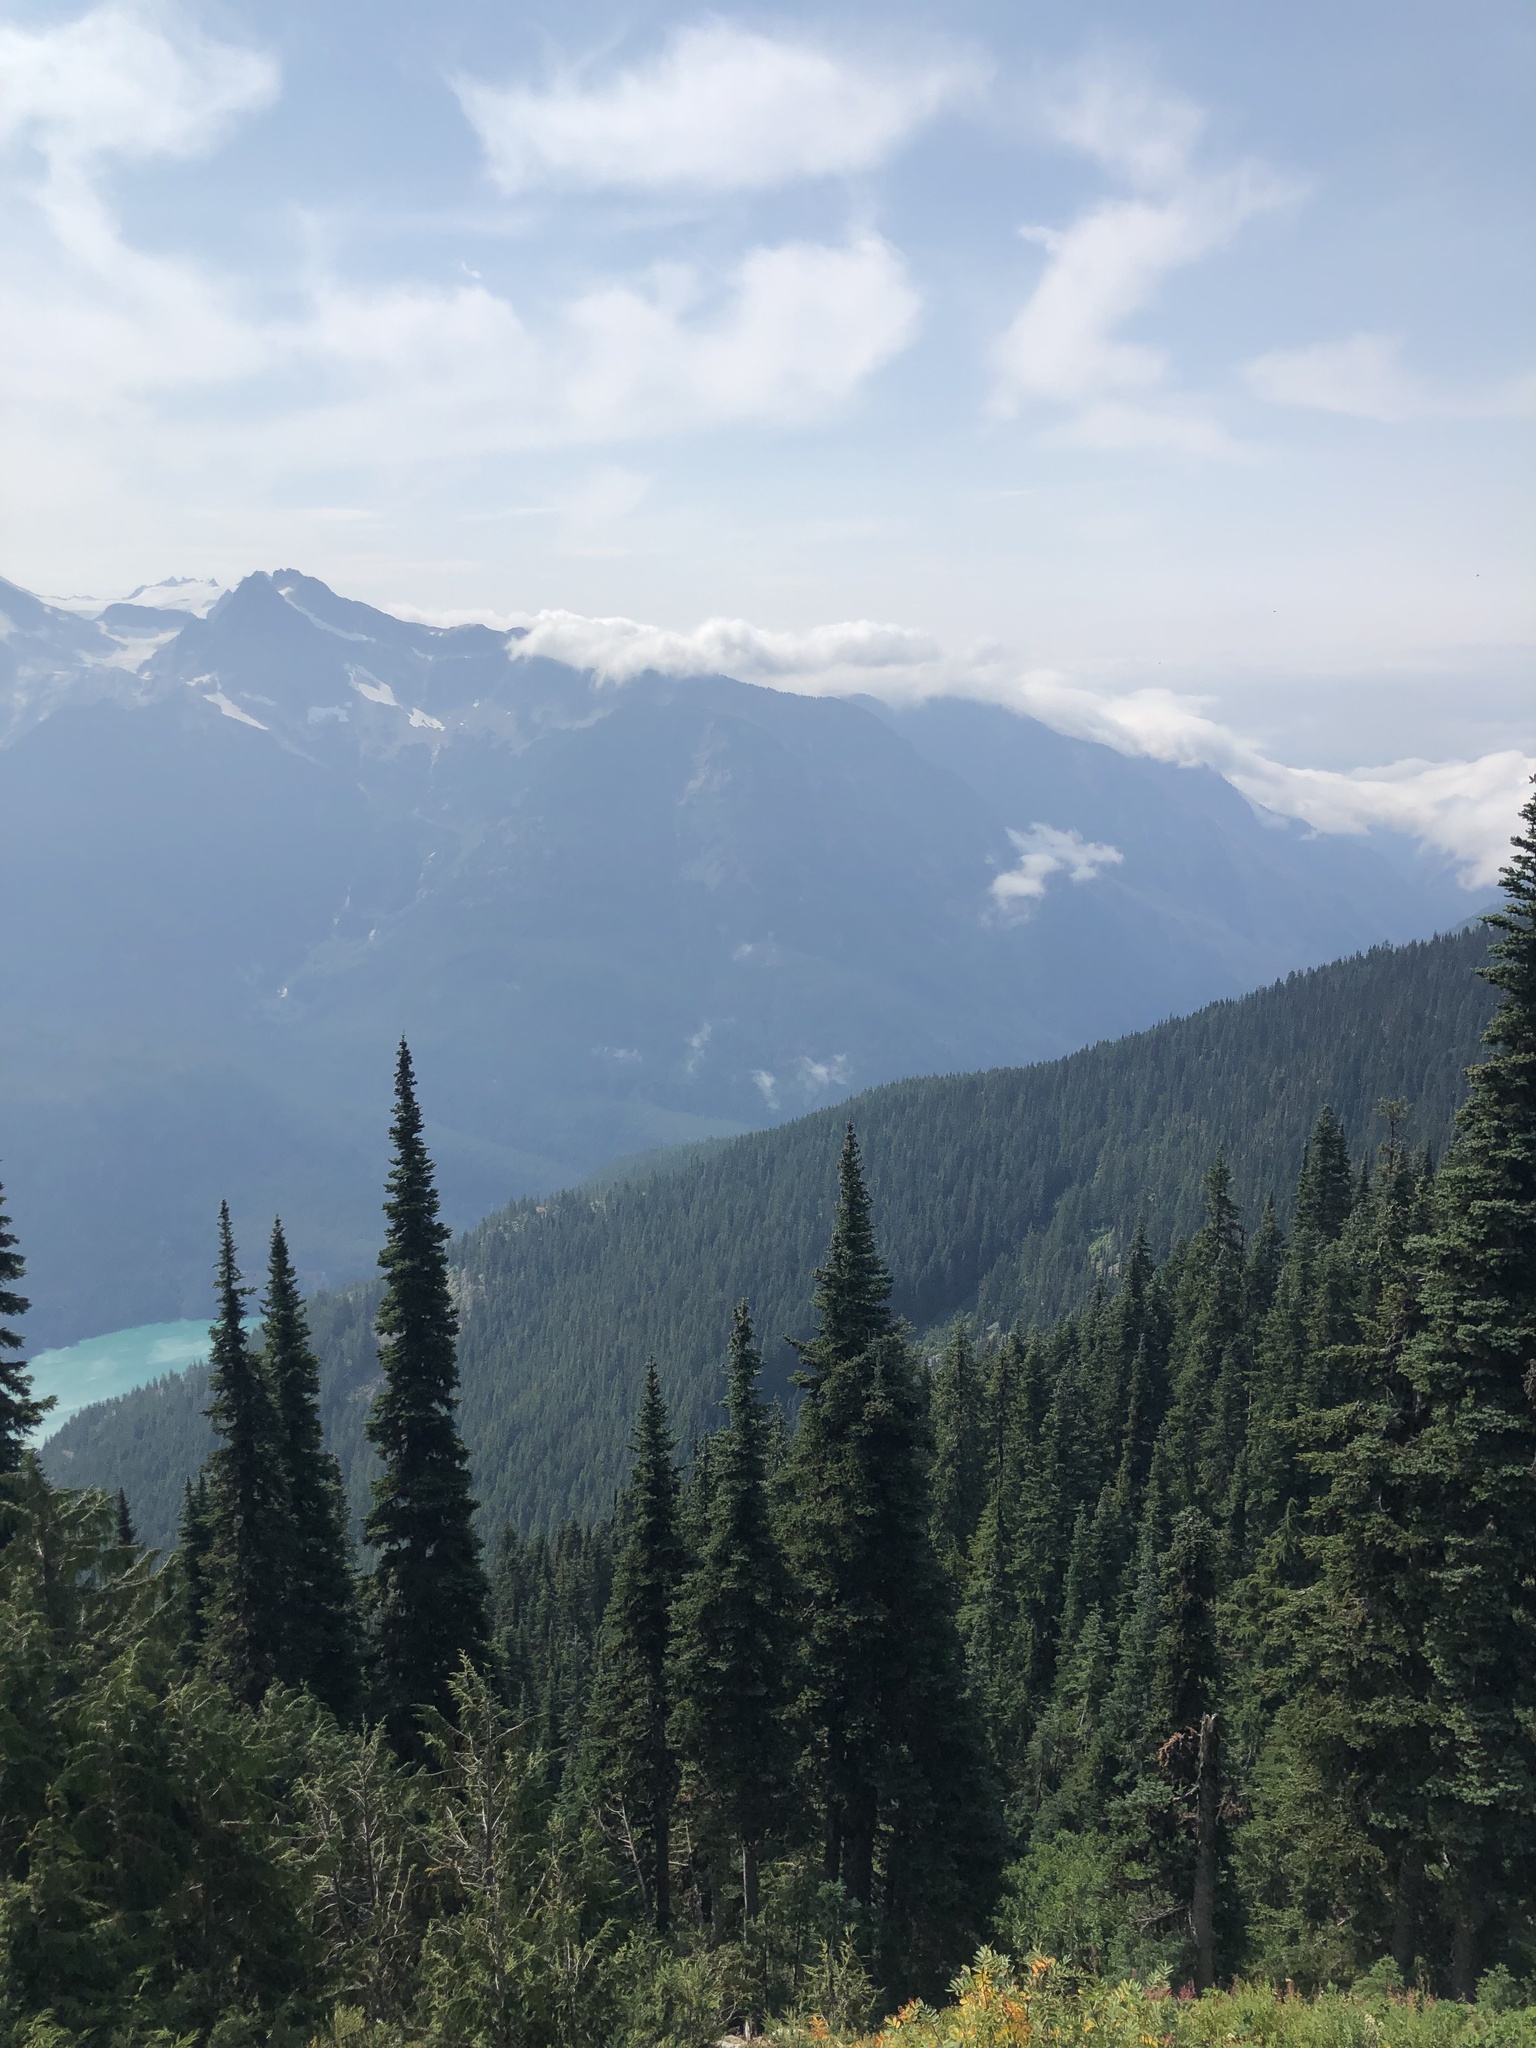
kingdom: Plantae
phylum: Tracheophyta
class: Pinopsida
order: Pinales
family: Pinaceae
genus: Abies
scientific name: Abies lasiocarpa
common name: Subalpine fir
